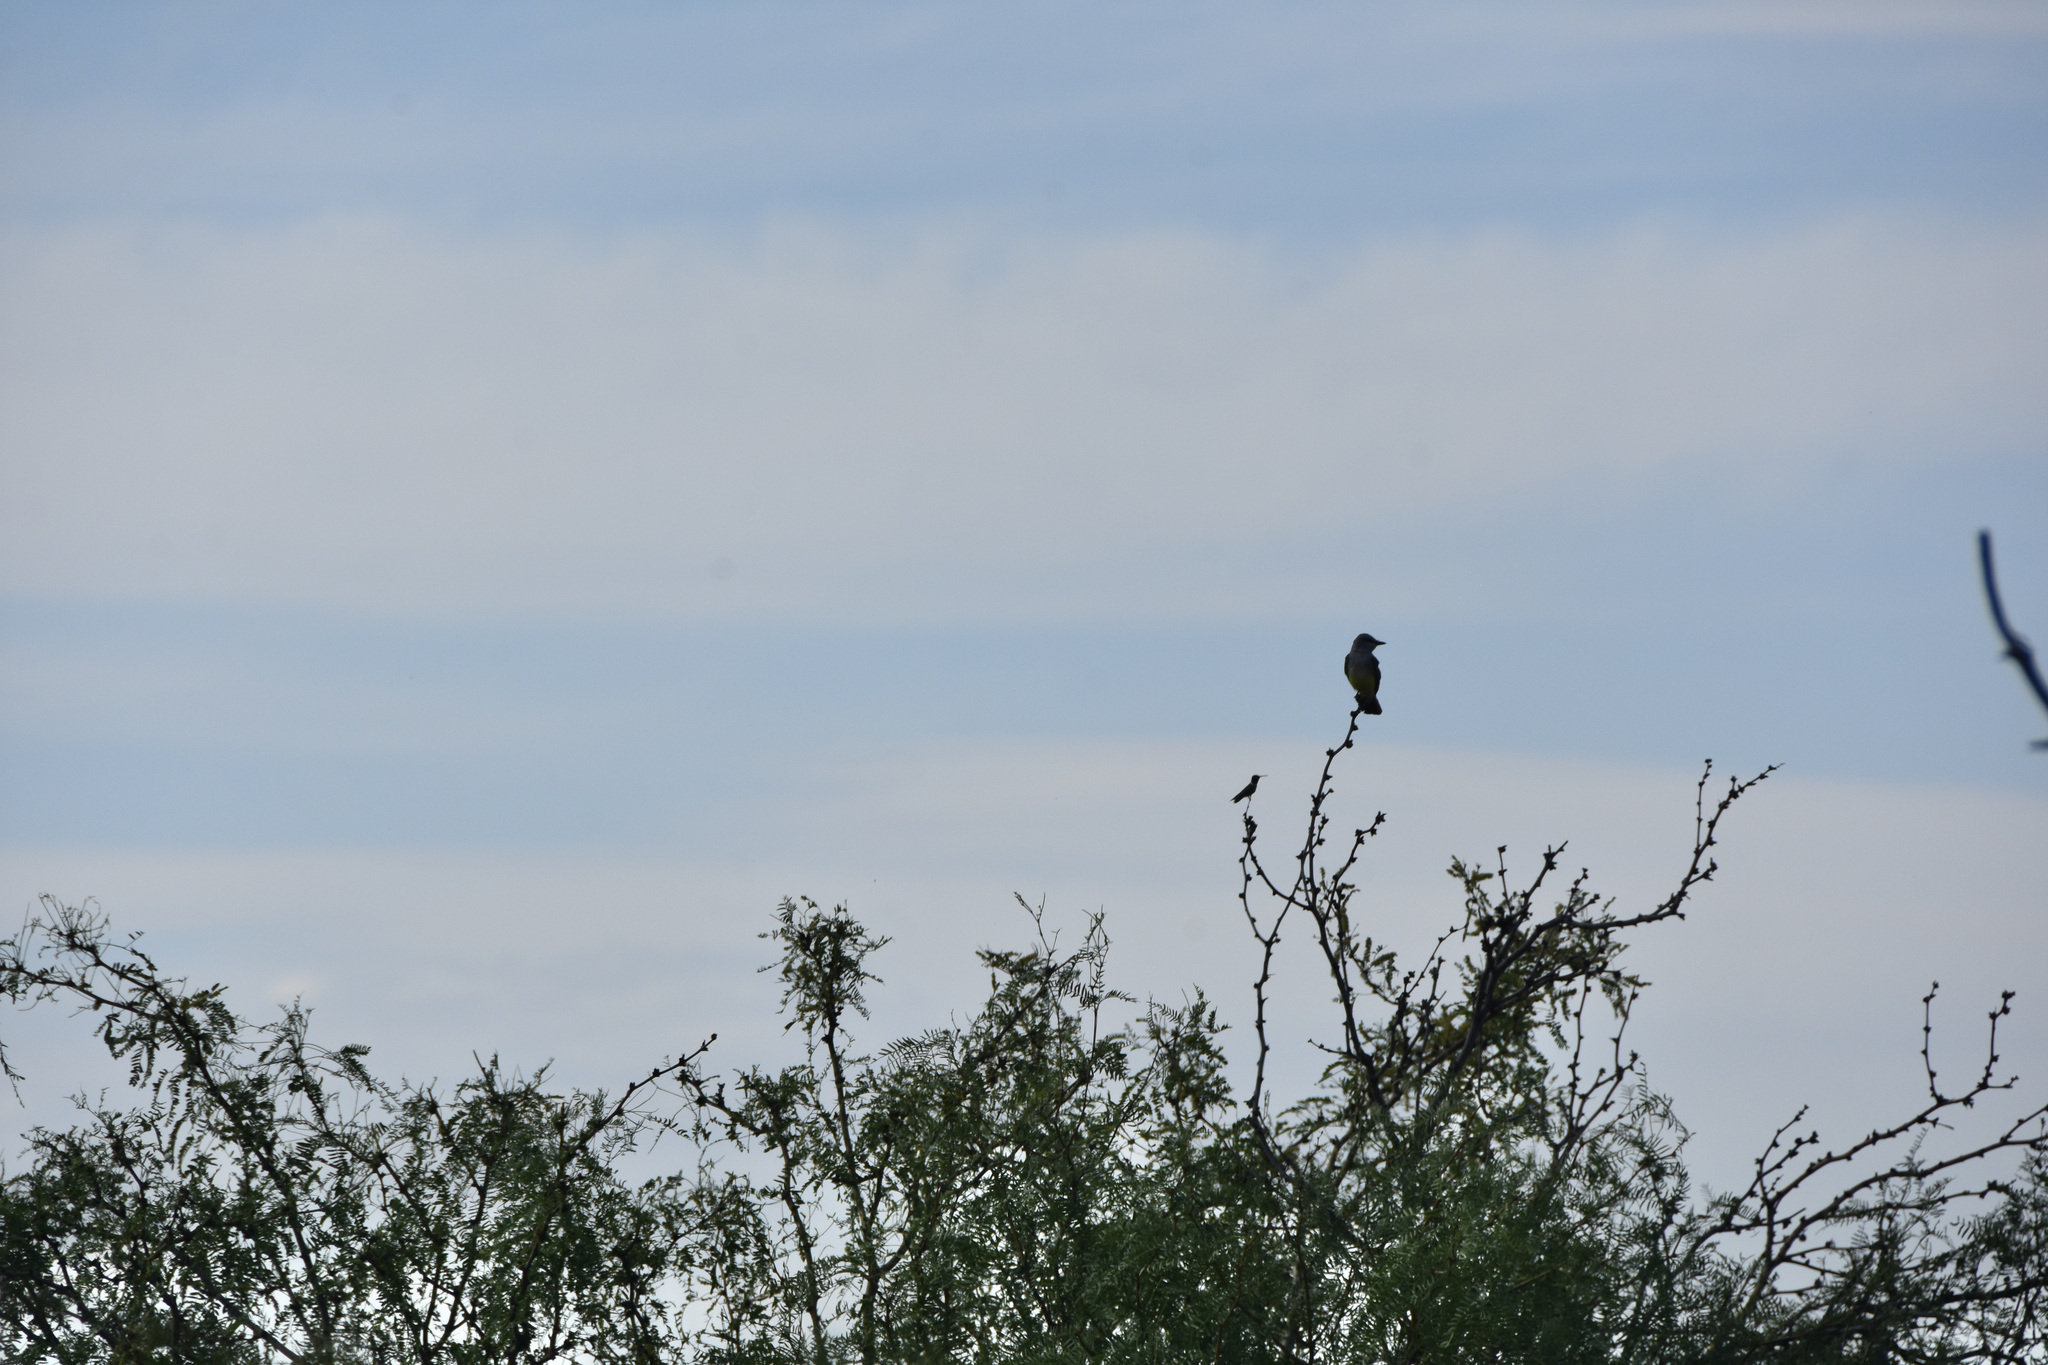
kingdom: Animalia
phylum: Chordata
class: Aves
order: Passeriformes
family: Tyrannidae
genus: Tyrannus
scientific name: Tyrannus verticalis
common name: Western kingbird
